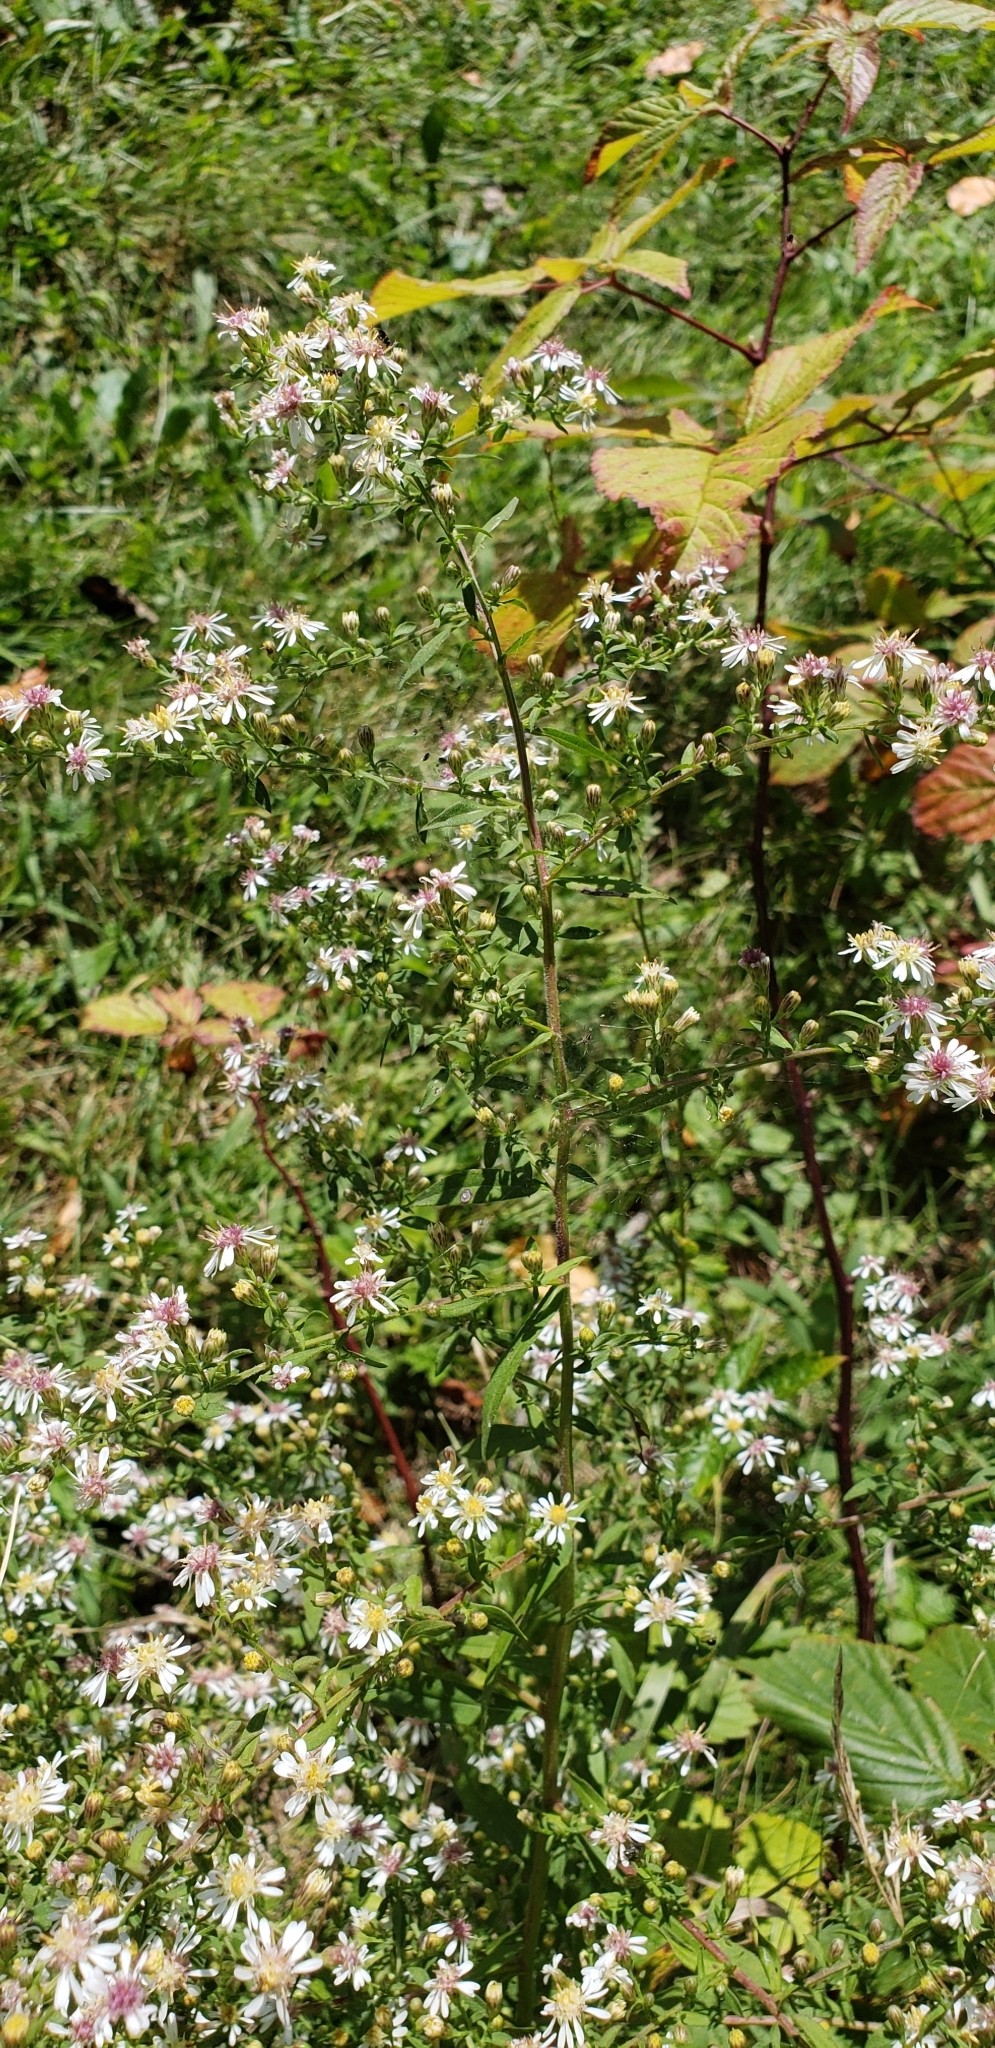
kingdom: Plantae
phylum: Tracheophyta
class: Magnoliopsida
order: Asterales
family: Asteraceae
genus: Symphyotrichum
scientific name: Symphyotrichum lateriflorum
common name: Calico aster
